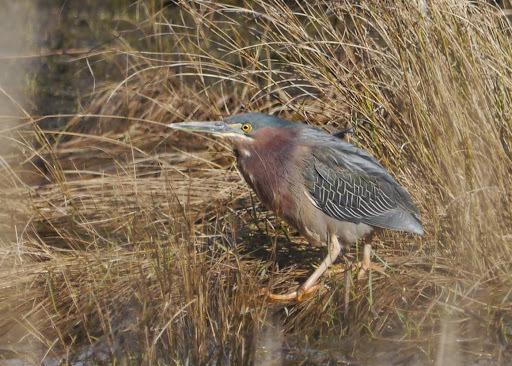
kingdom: Animalia
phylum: Chordata
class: Aves
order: Pelecaniformes
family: Ardeidae
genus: Butorides
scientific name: Butorides virescens
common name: Green heron
